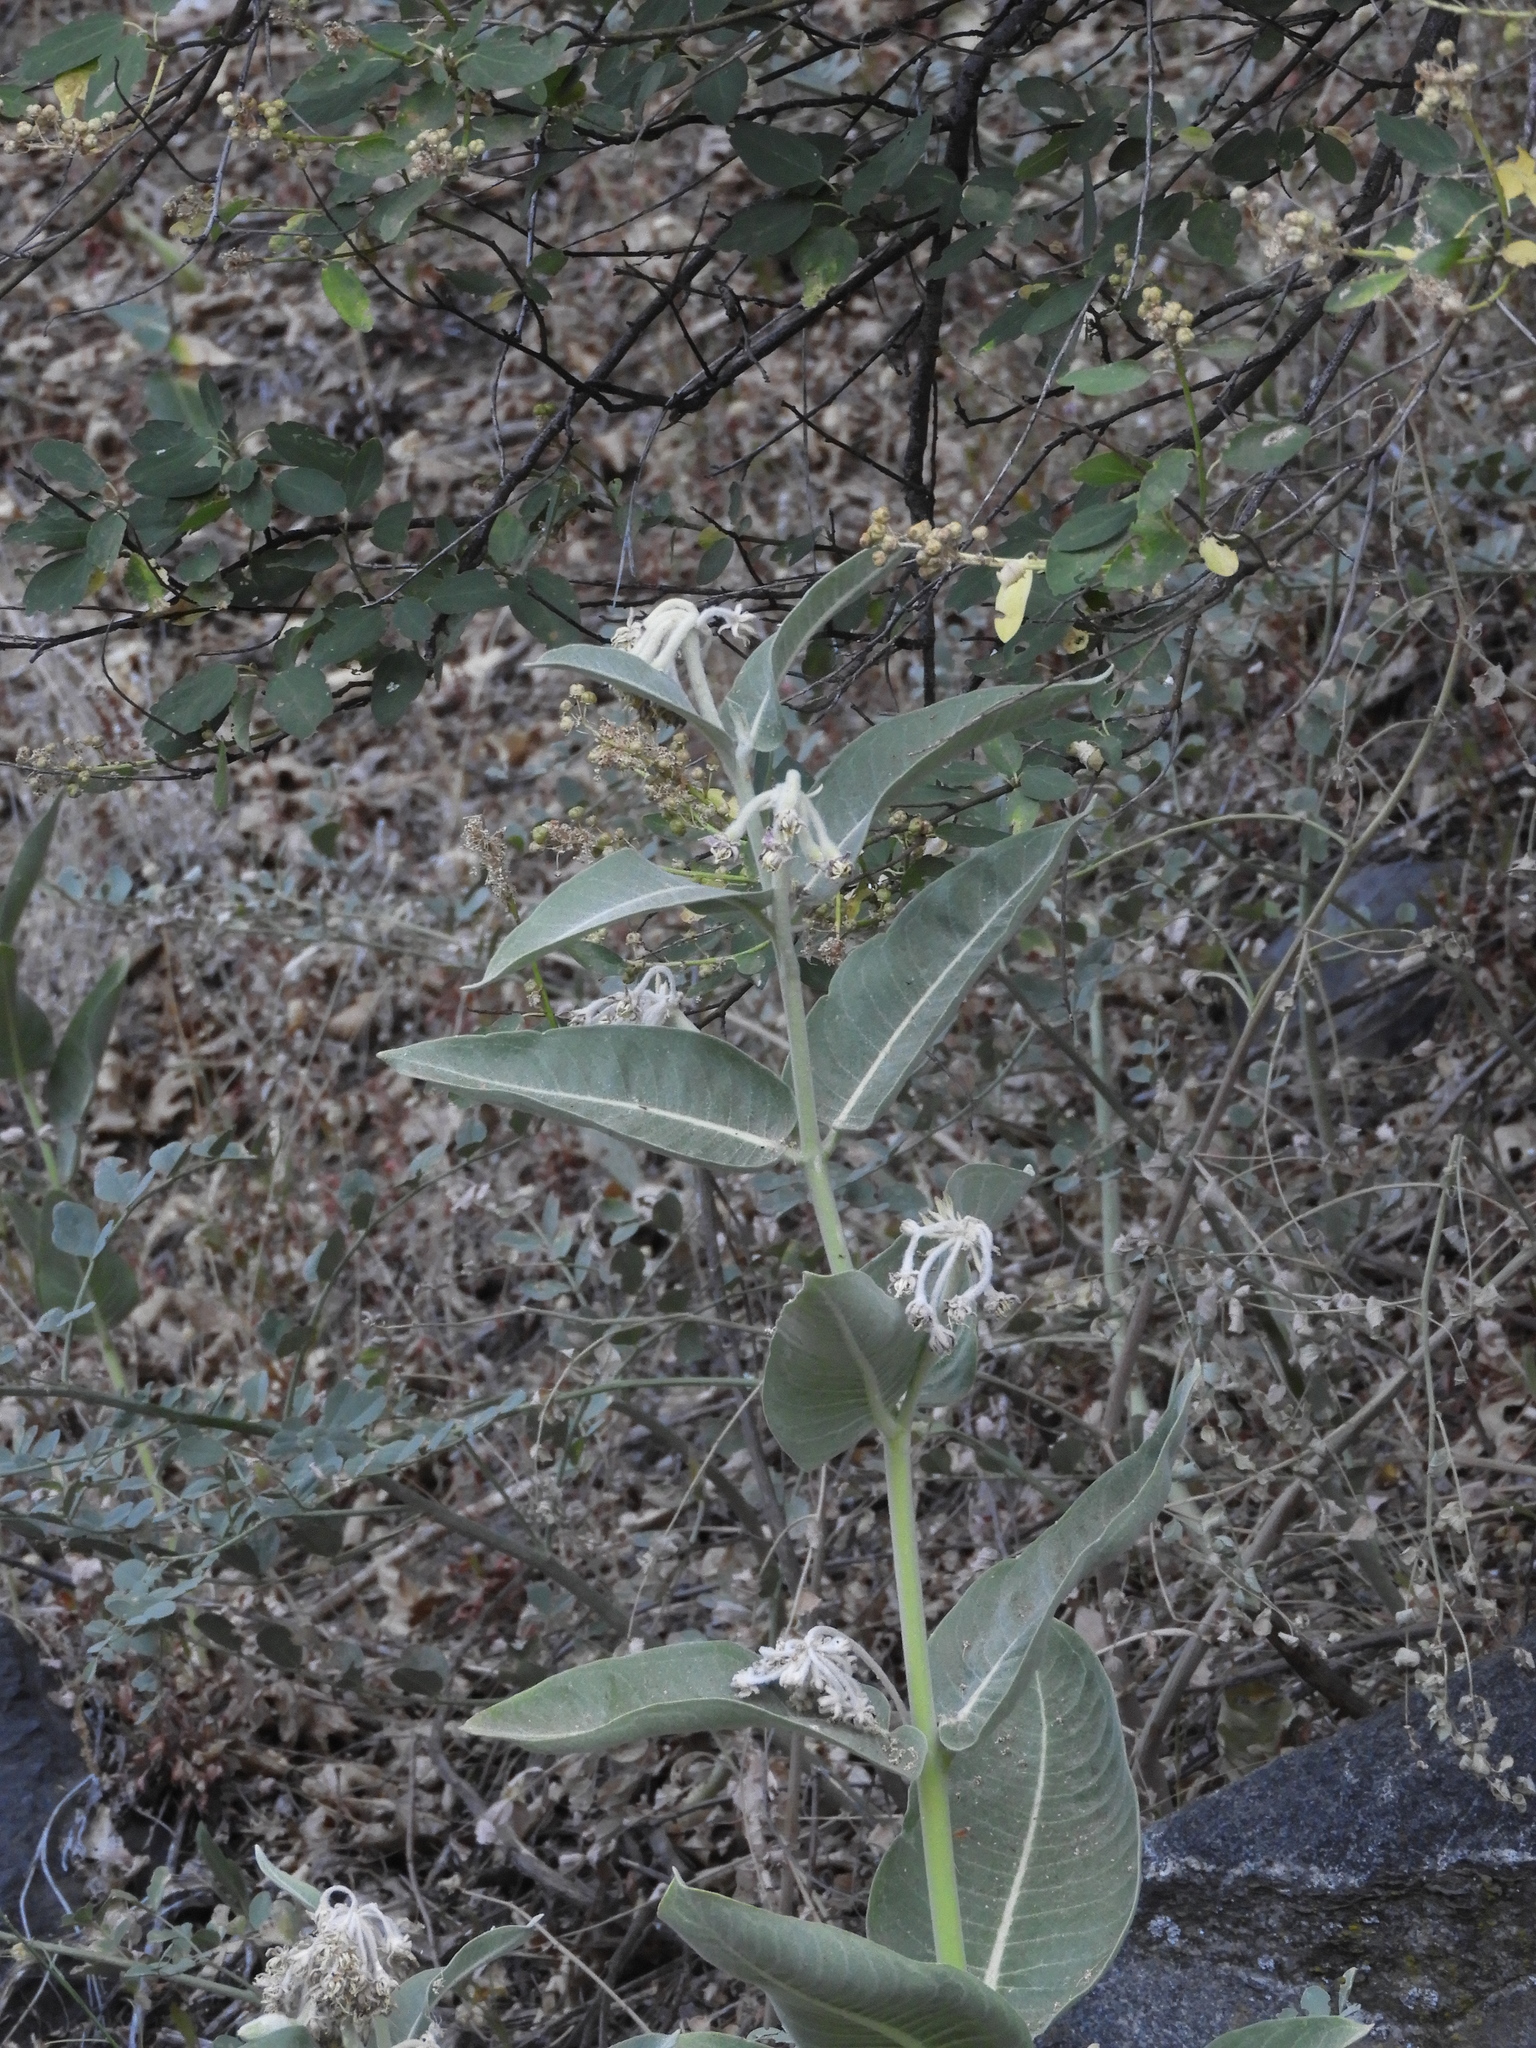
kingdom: Plantae
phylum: Tracheophyta
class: Magnoliopsida
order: Gentianales
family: Apocynaceae
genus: Asclepias
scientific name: Asclepias speciosa
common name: Showy milkweed
